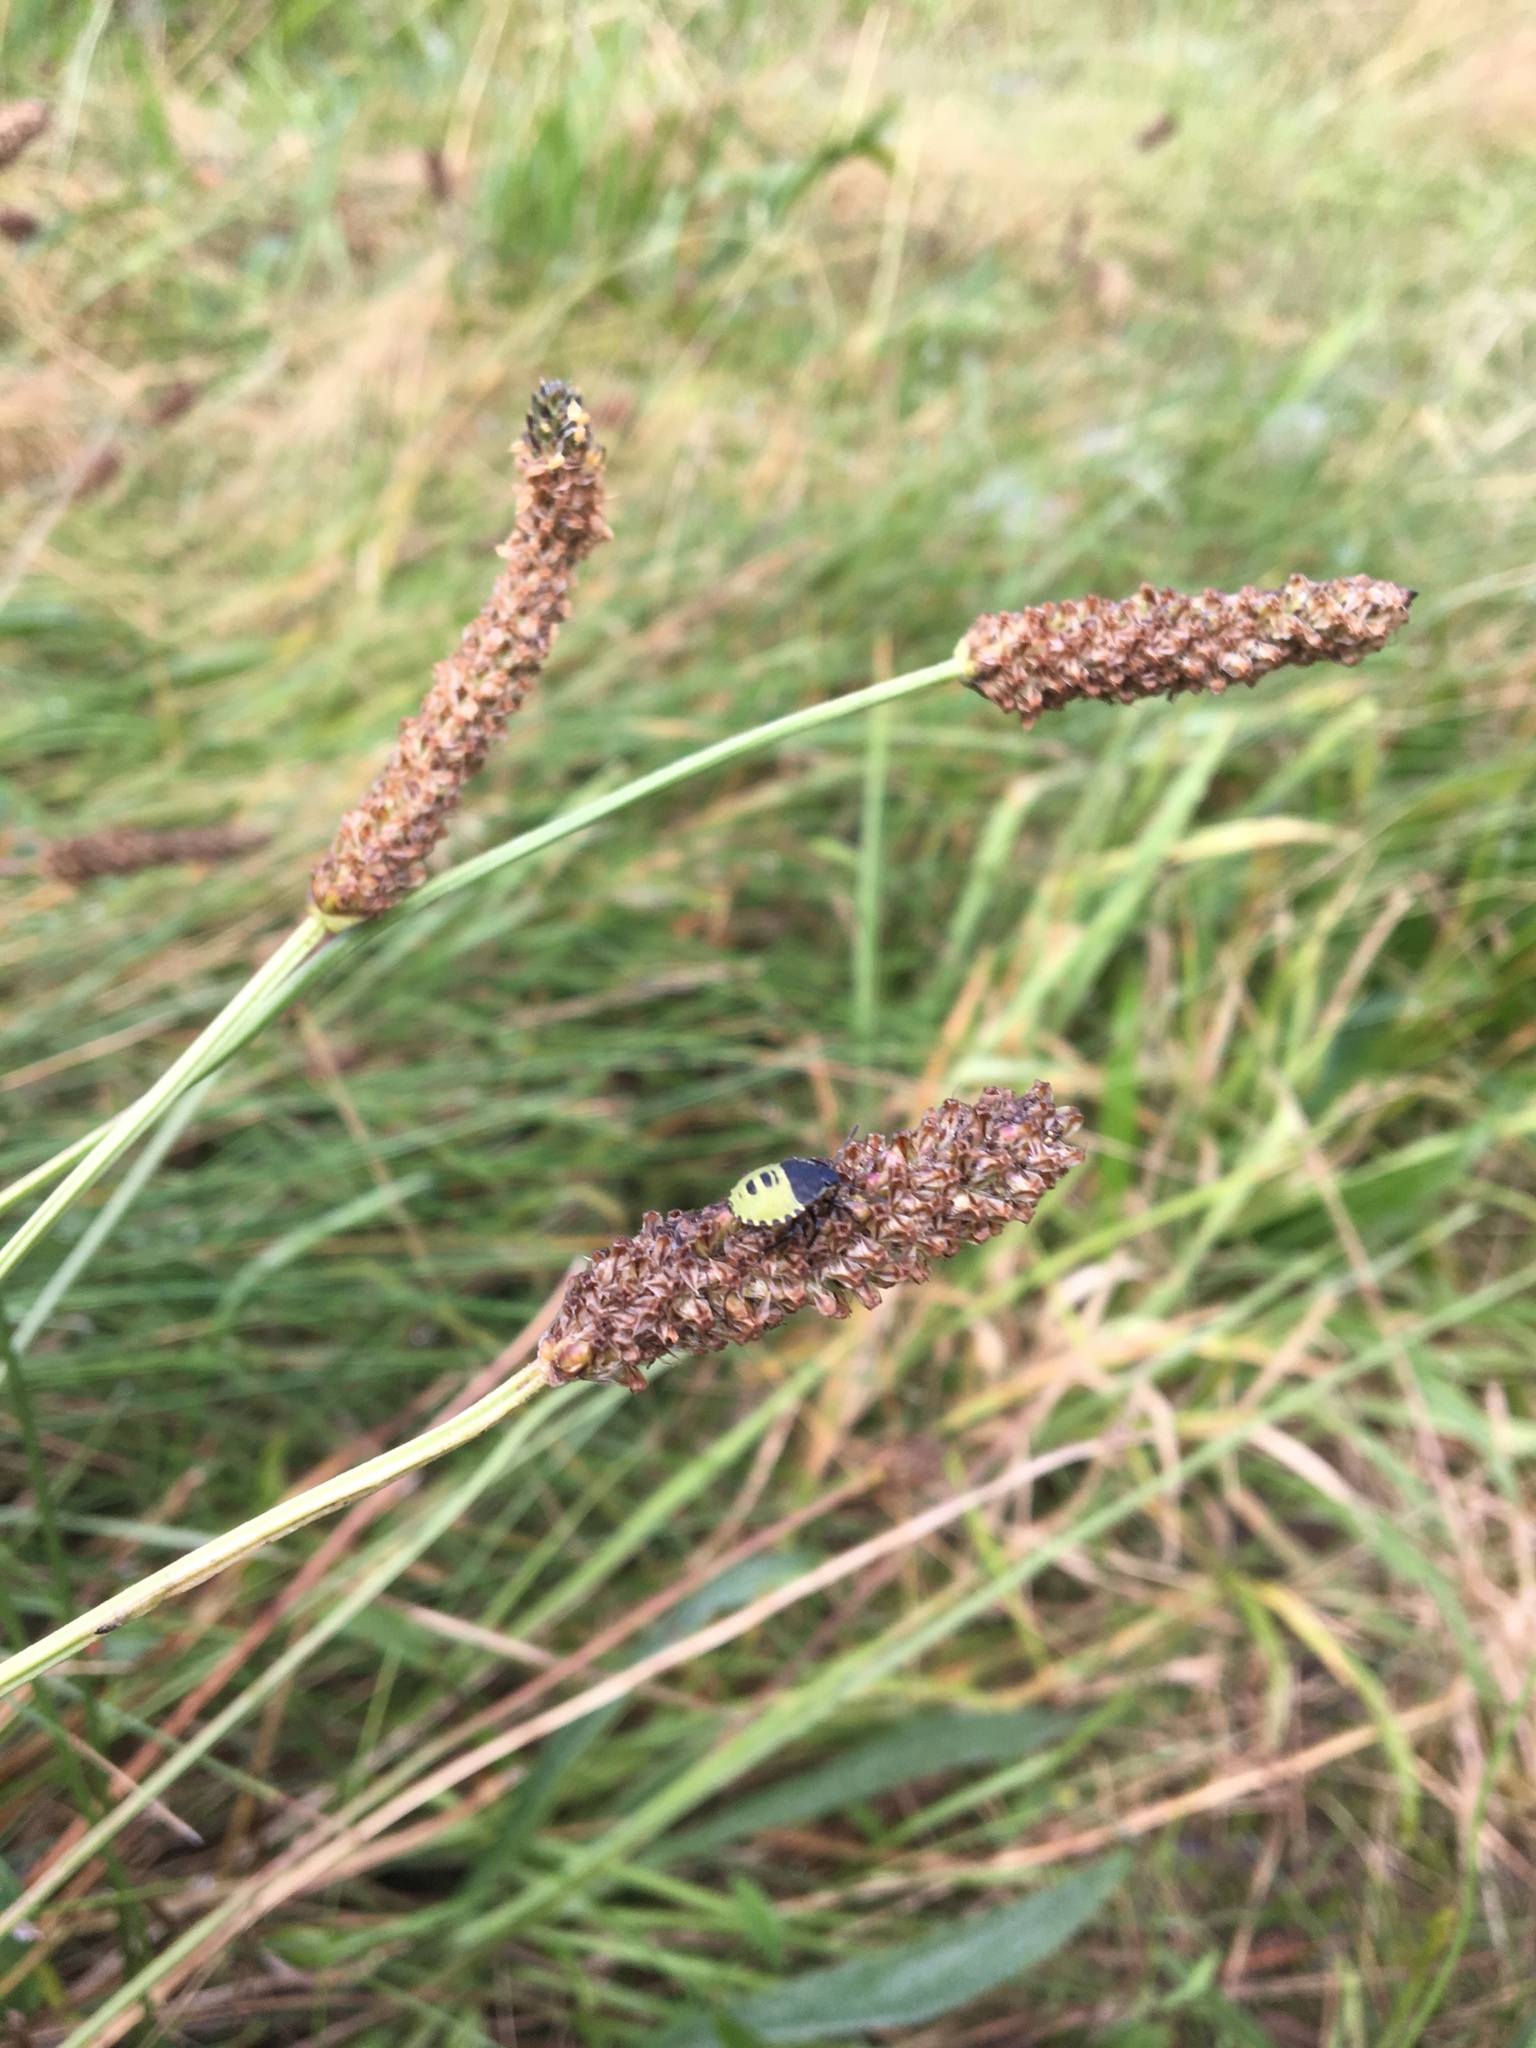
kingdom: Animalia
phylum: Arthropoda
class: Insecta
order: Hemiptera
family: Pentatomidae
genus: Palomena
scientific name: Palomena prasina
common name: Green shieldbug
